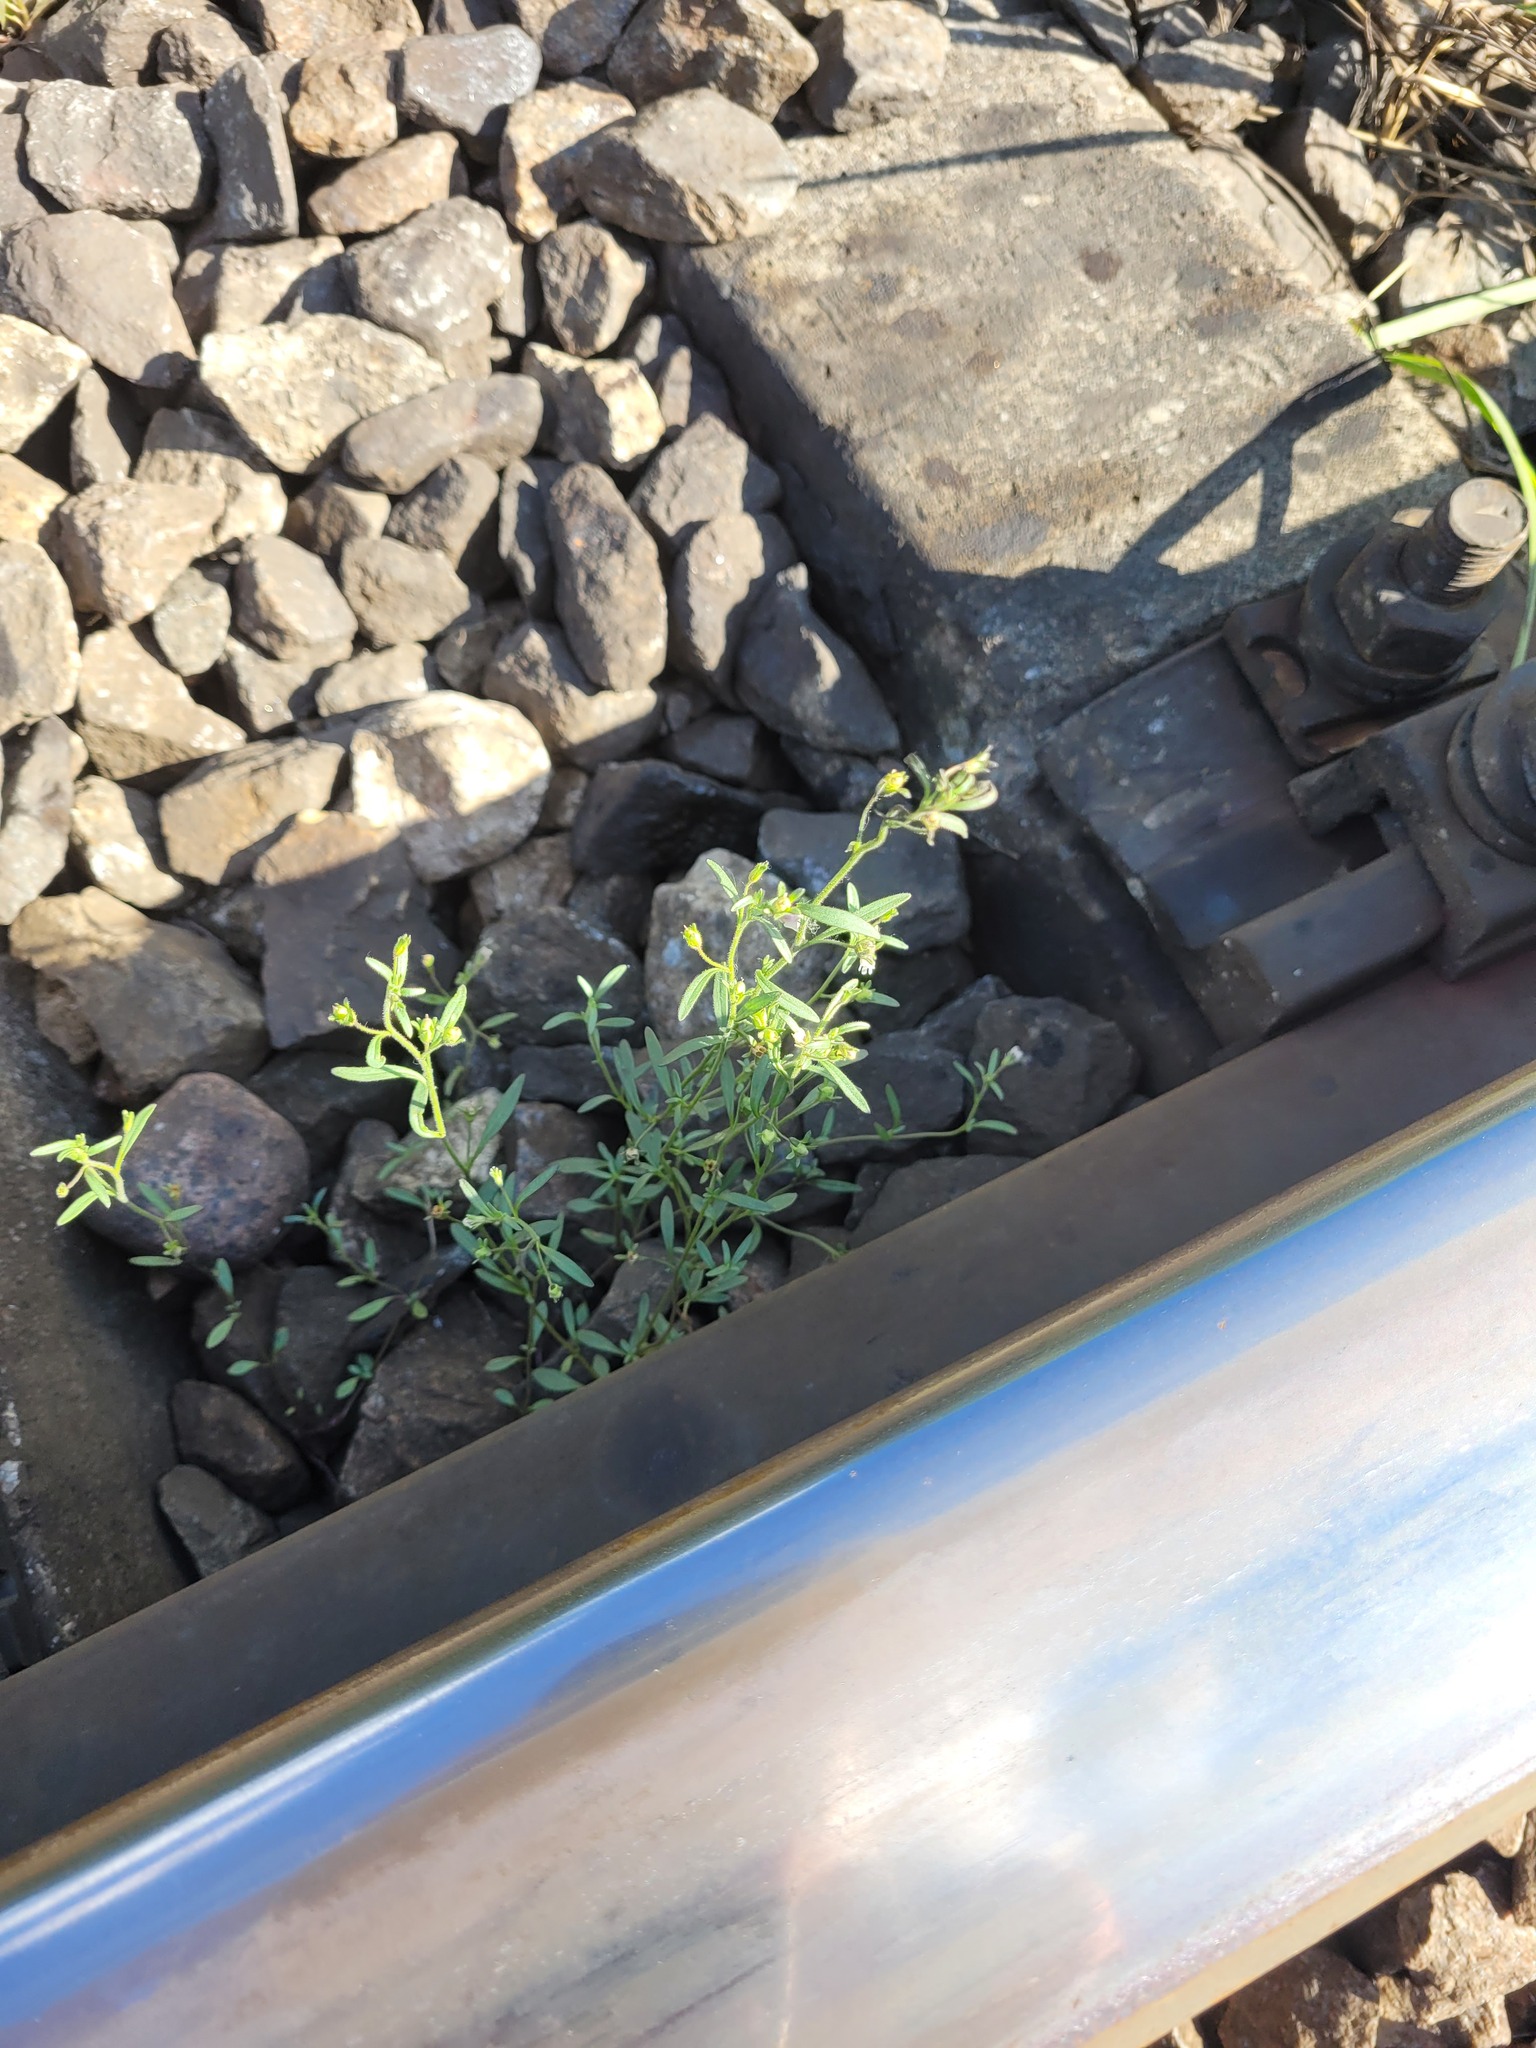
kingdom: Plantae
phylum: Tracheophyta
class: Magnoliopsida
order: Lamiales
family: Plantaginaceae
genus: Chaenorhinum
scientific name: Chaenorhinum minus
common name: Dwarf snapdragon
